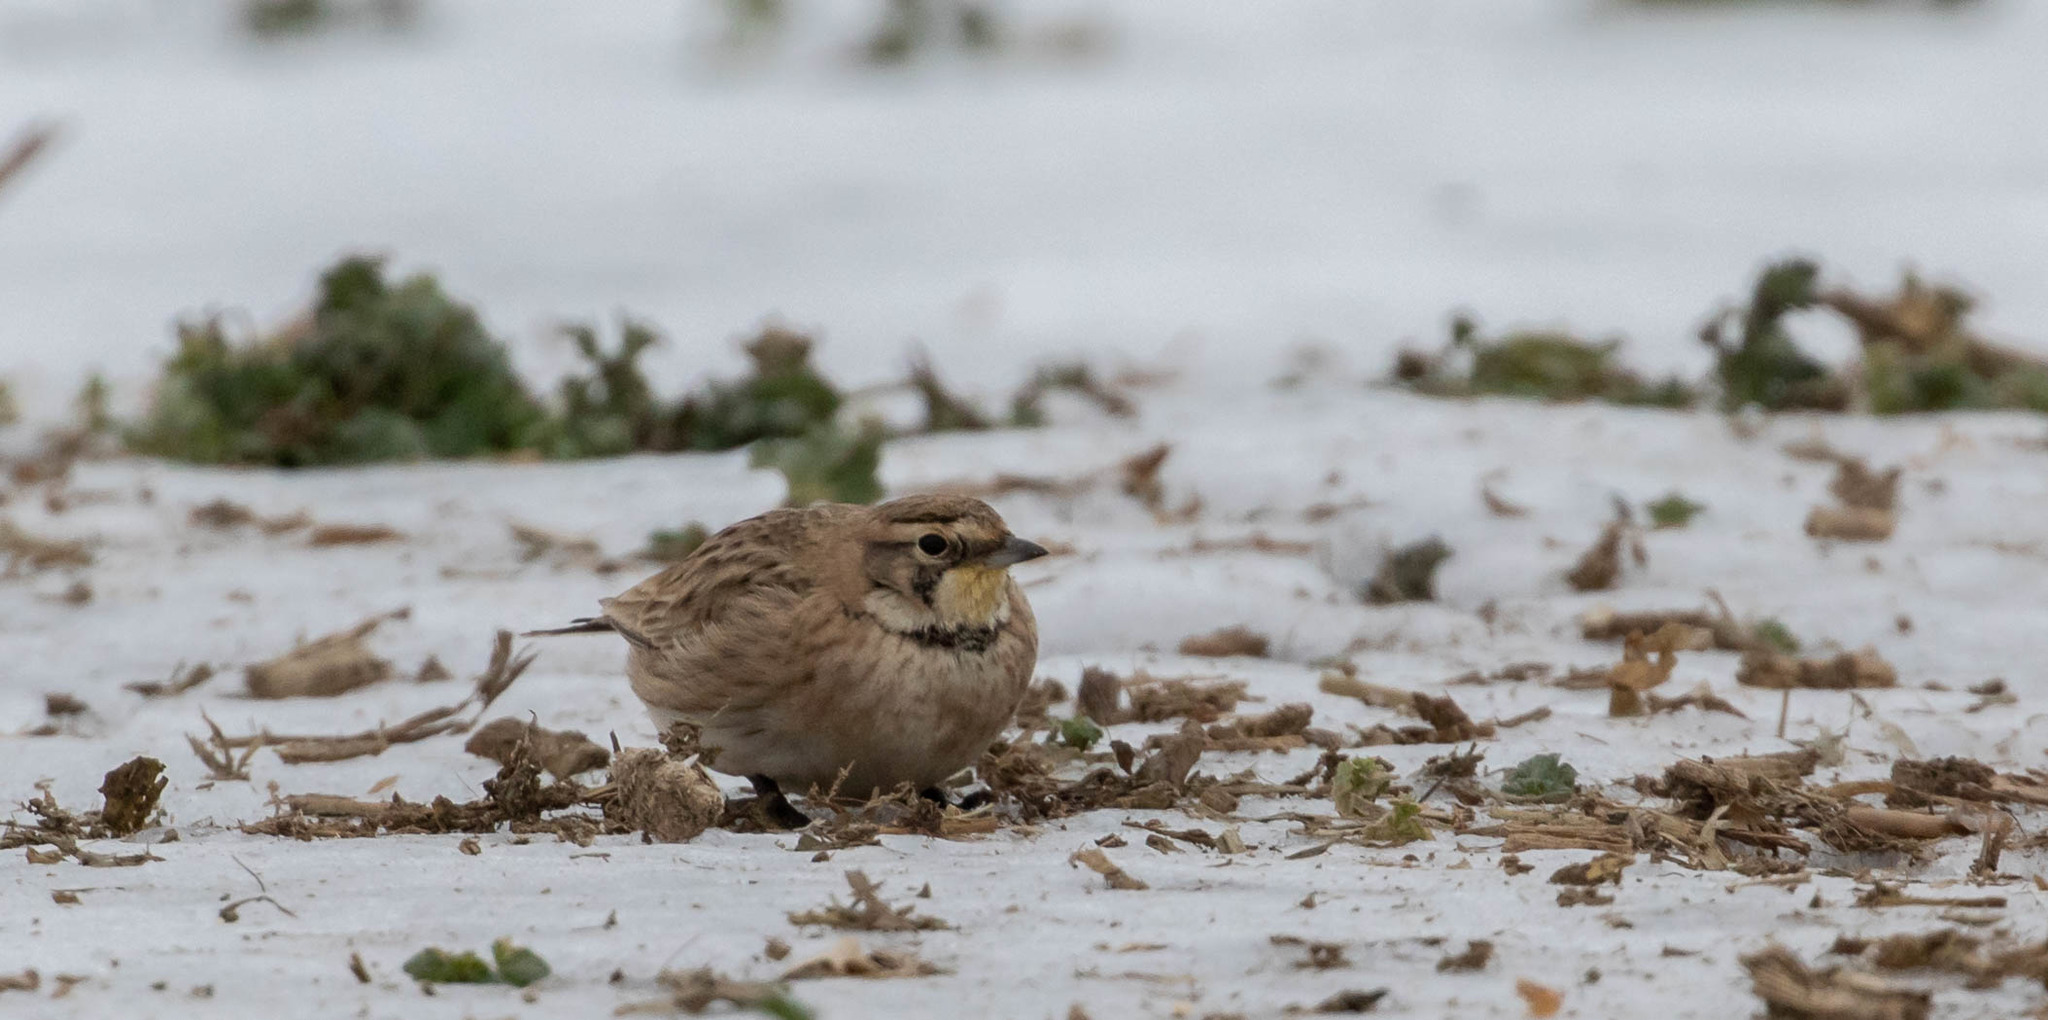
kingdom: Animalia
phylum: Chordata
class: Aves
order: Passeriformes
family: Alaudidae
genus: Eremophila
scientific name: Eremophila alpestris
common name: Horned lark
